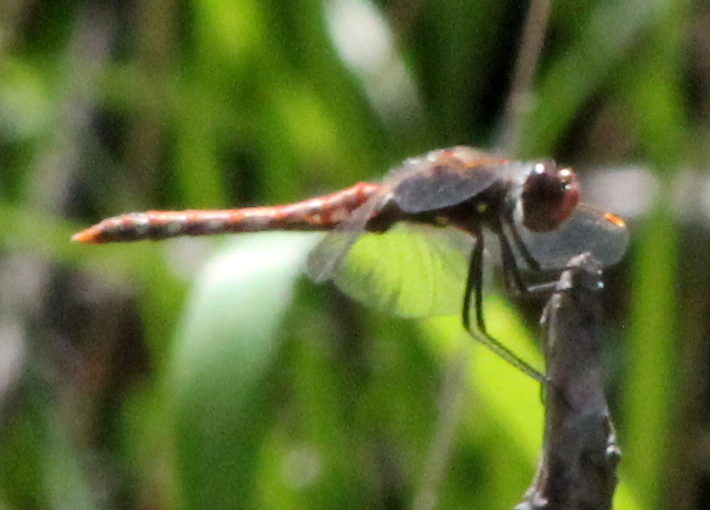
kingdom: Animalia
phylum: Arthropoda
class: Insecta
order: Odonata
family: Libellulidae
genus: Sympetrum
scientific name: Sympetrum corruptum
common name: Variegated meadowhawk
